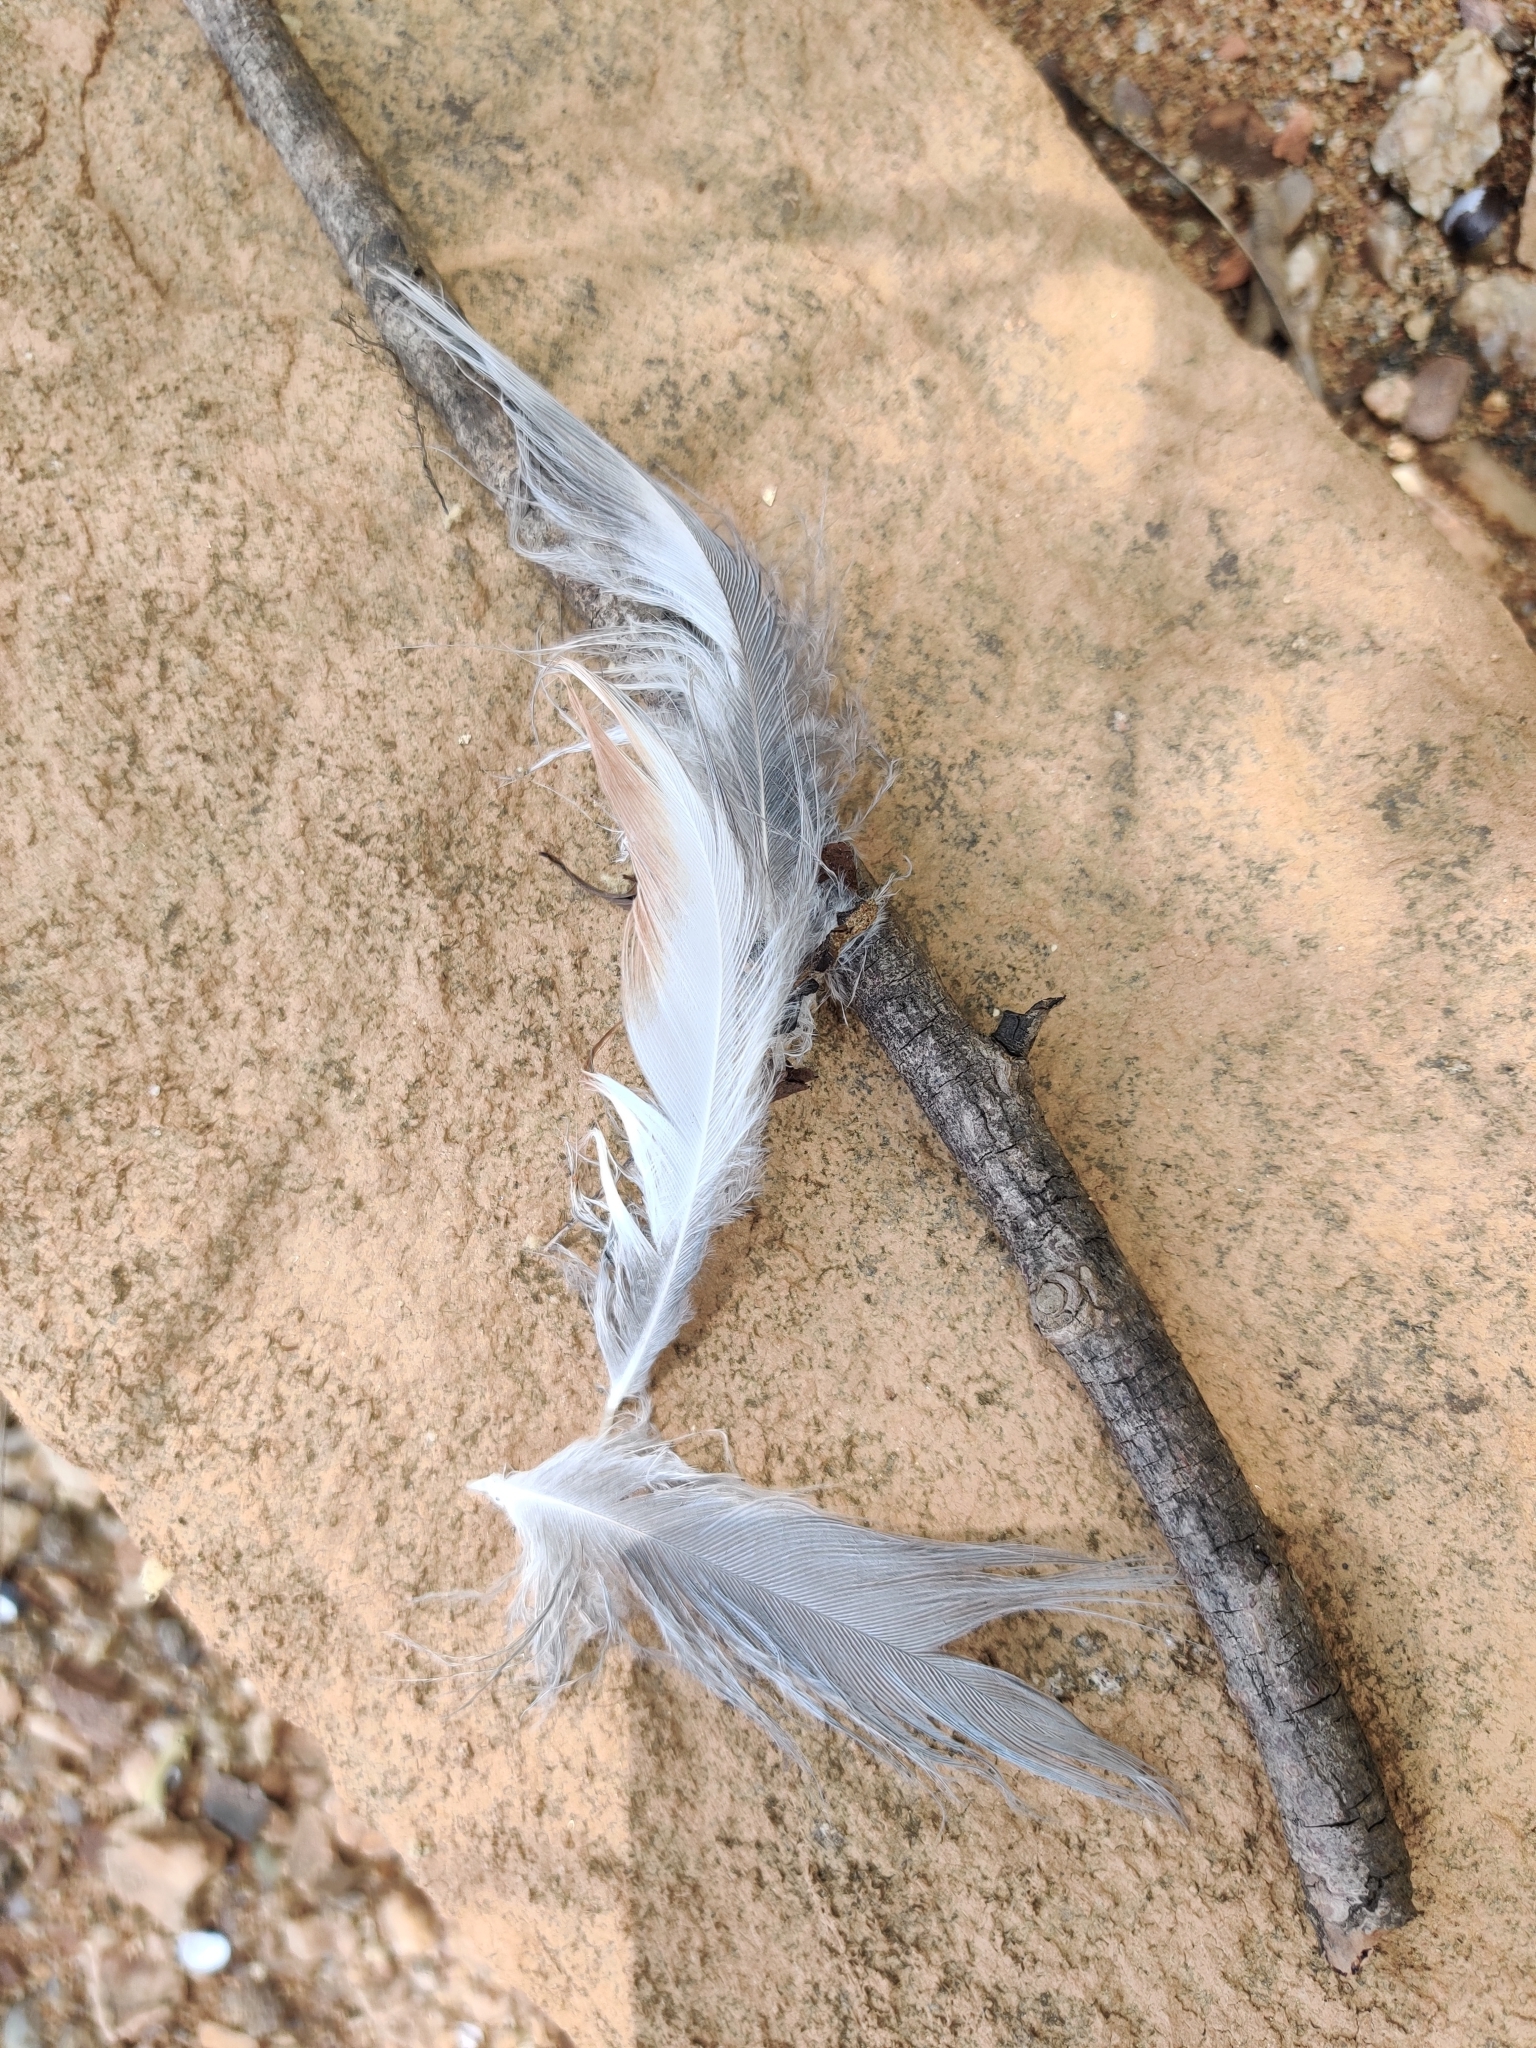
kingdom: Animalia
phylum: Chordata
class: Aves
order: Pelecaniformes
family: Ardeidae
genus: Ardea
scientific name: Ardea herodias
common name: Great blue heron
